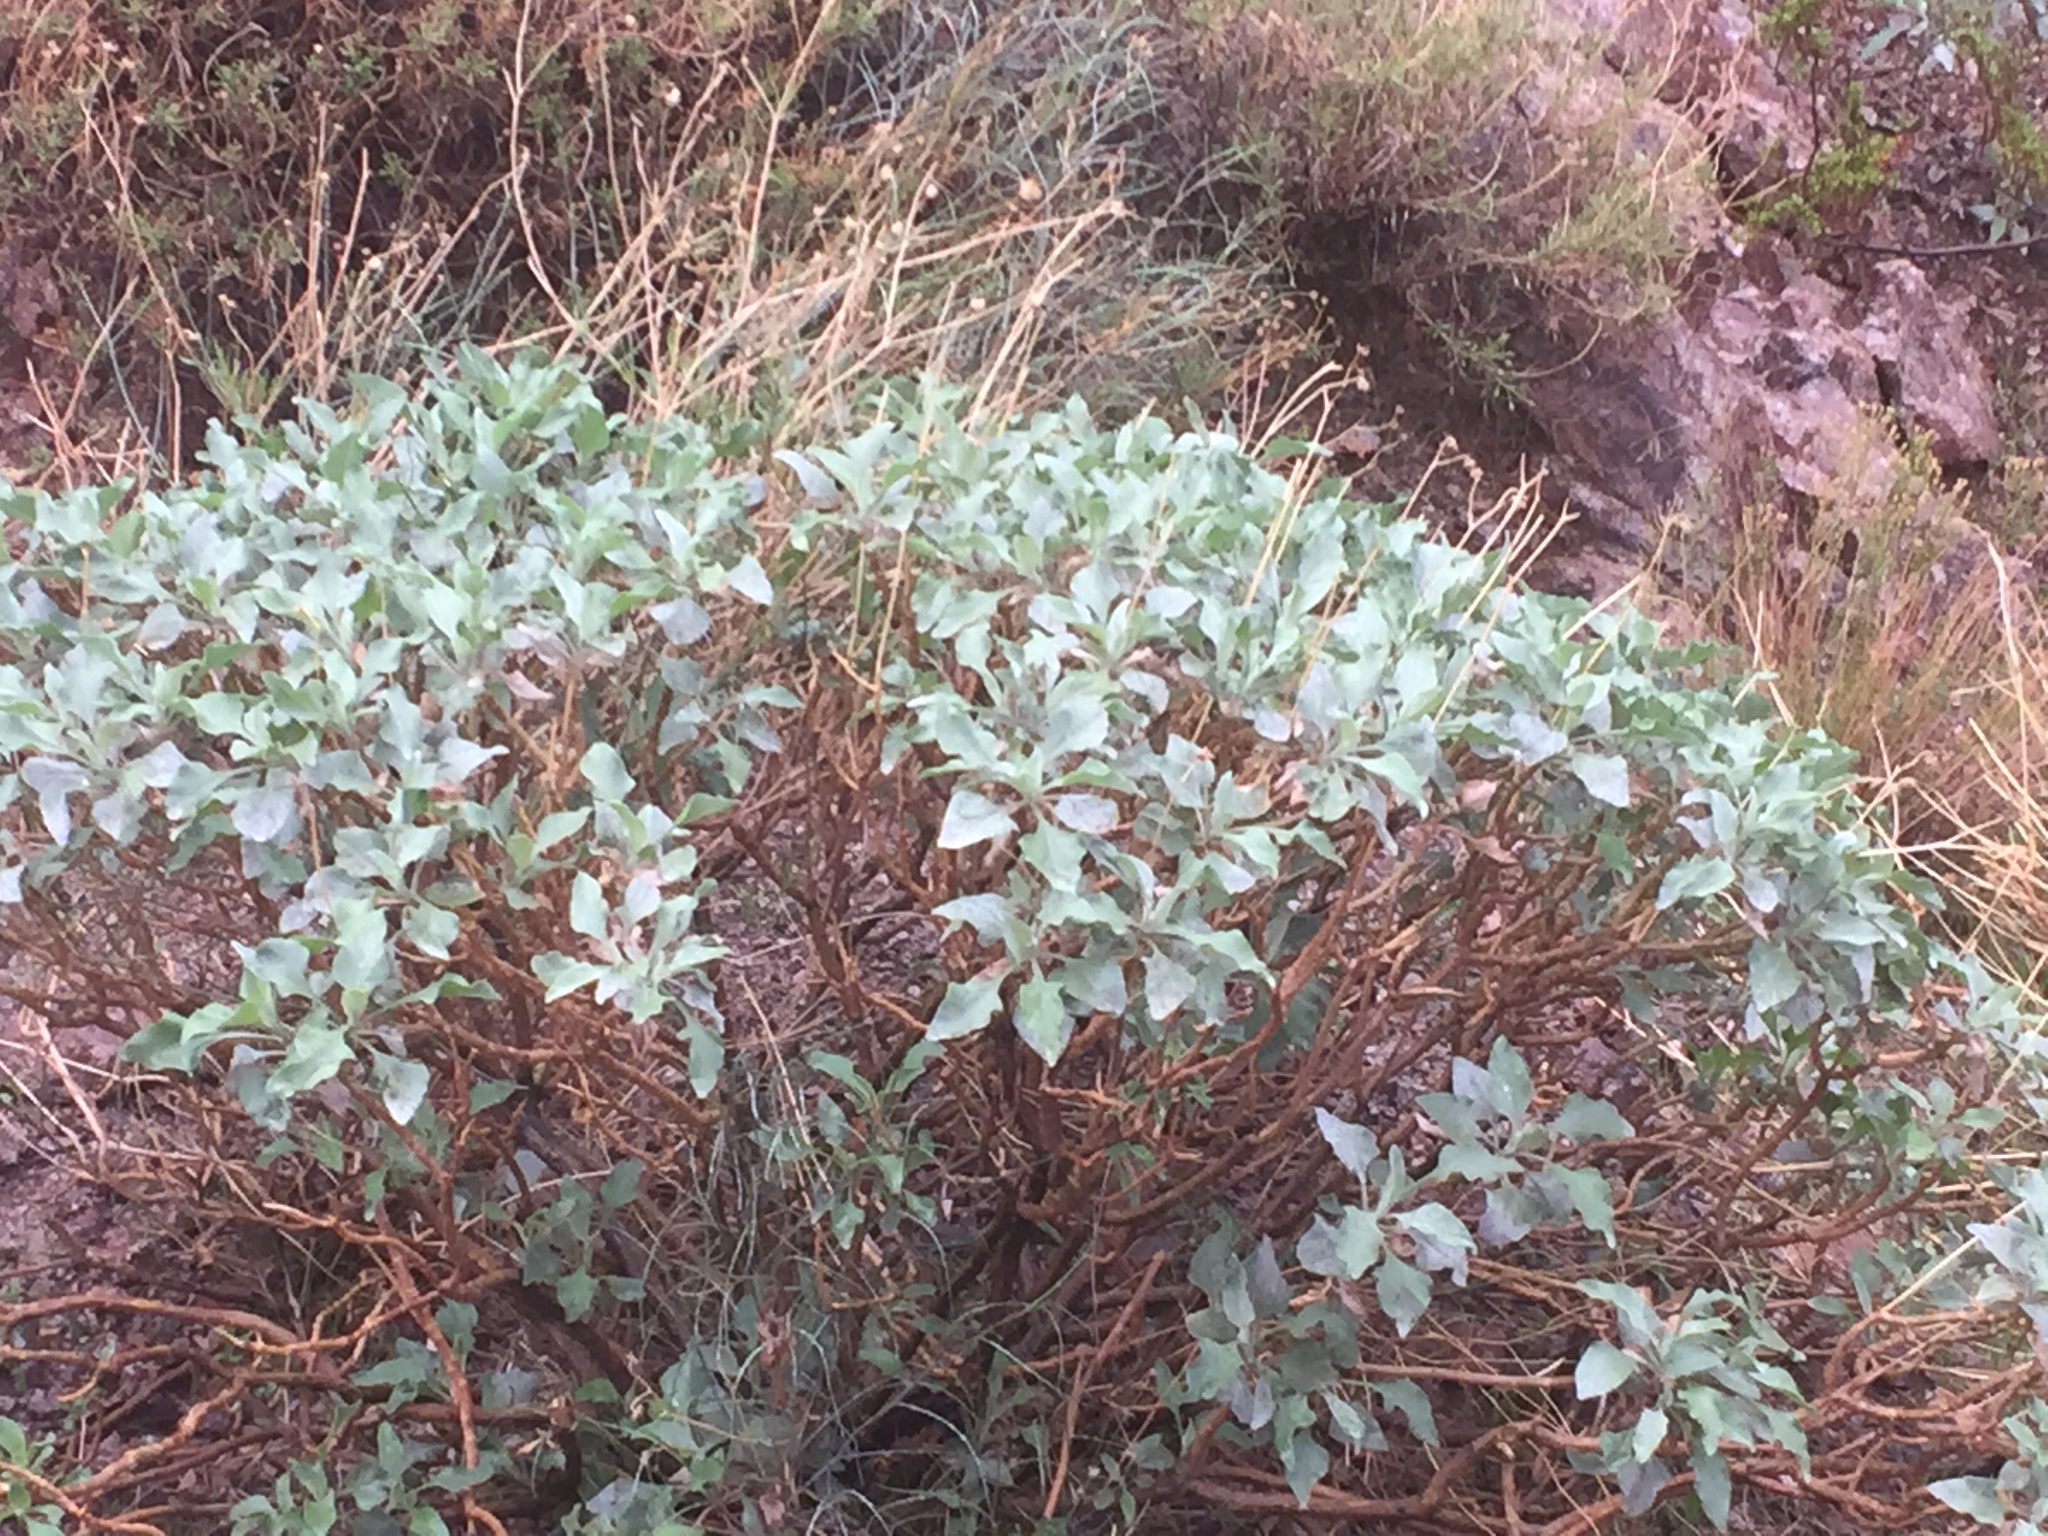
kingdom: Plantae
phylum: Tracheophyta
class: Magnoliopsida
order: Asterales
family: Asteraceae
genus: Encelia
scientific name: Encelia farinosa
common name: Brittlebush
